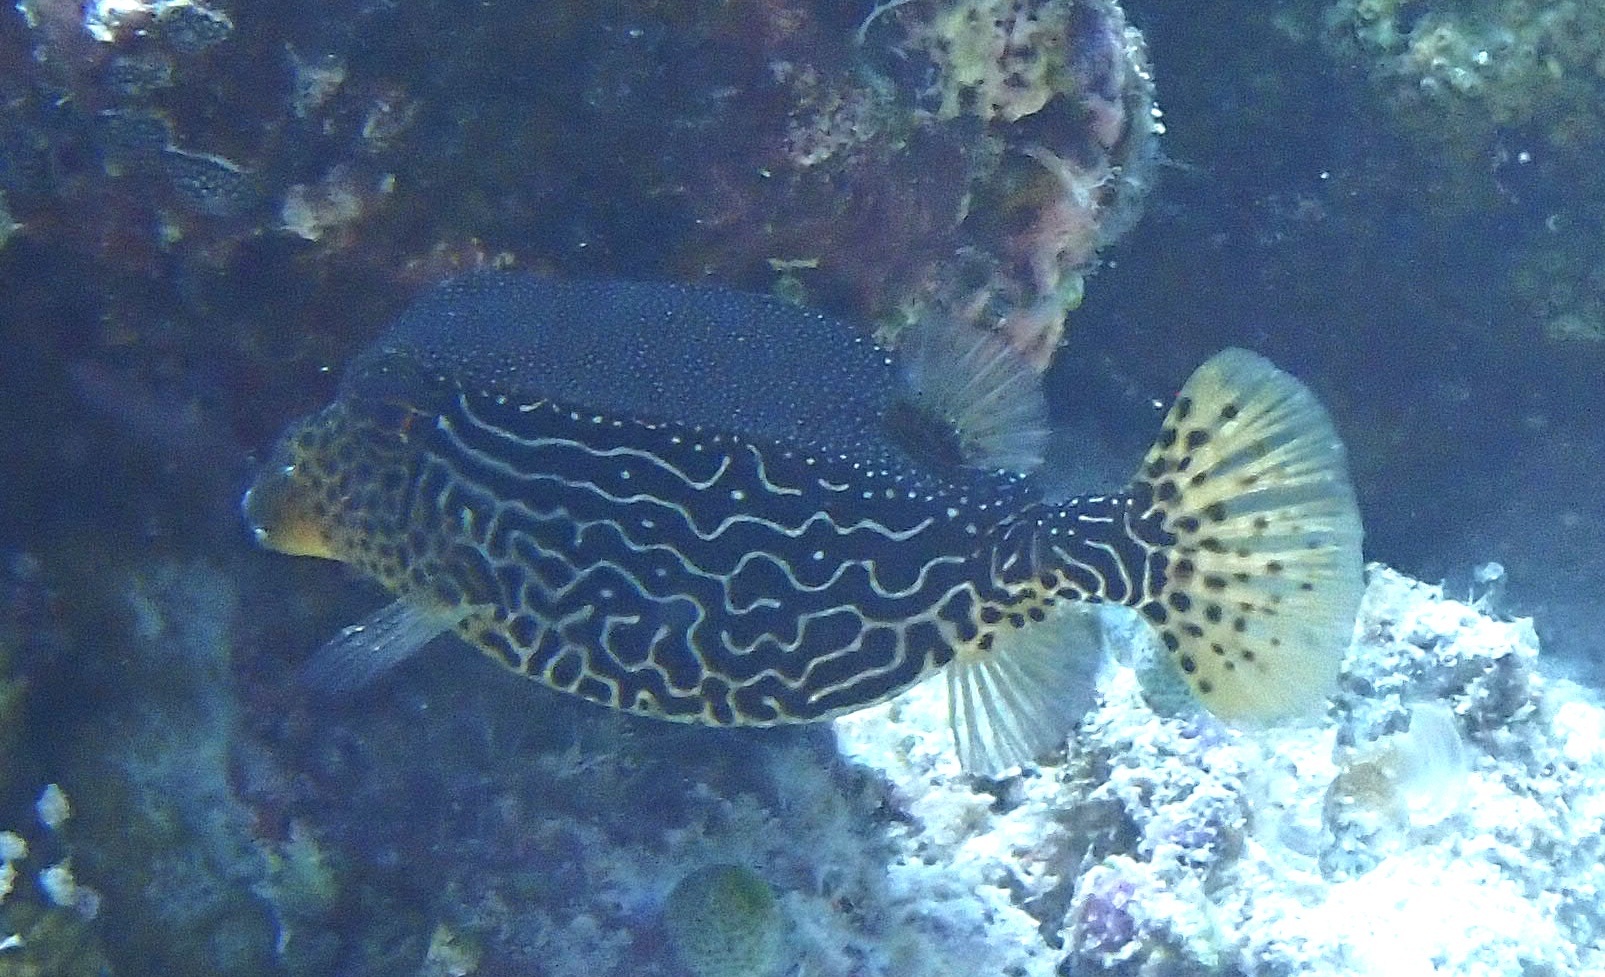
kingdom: Animalia
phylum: Chordata
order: Tetraodontiformes
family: Ostraciidae
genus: Ostracion
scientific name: Ostracion solorense
